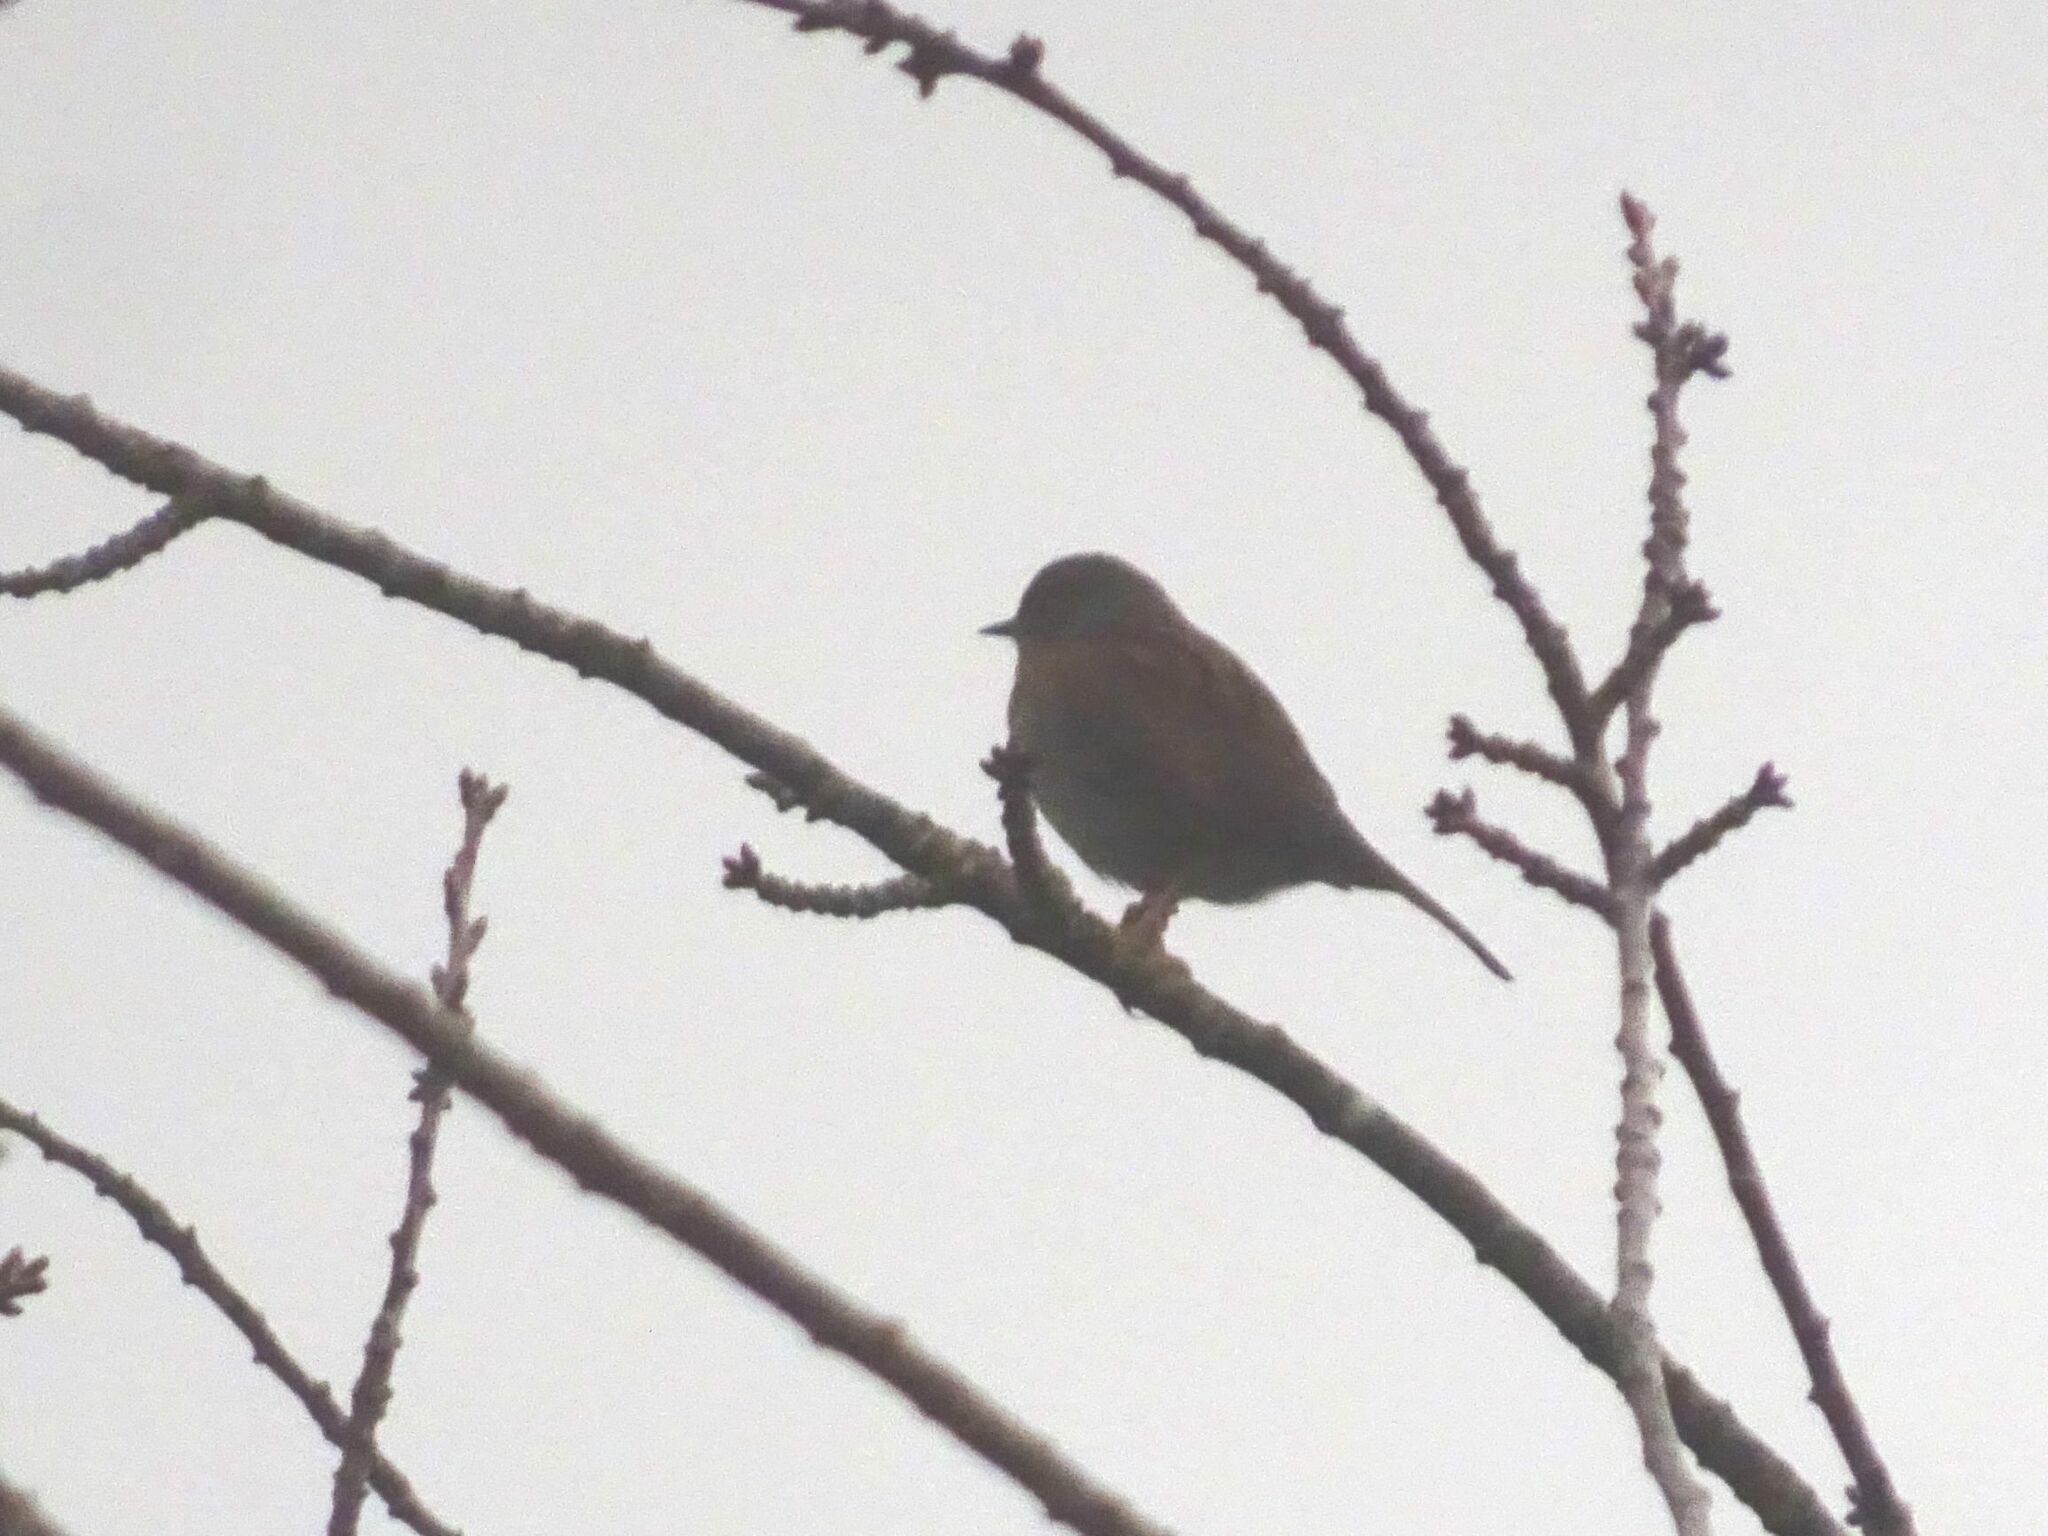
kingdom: Animalia
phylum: Chordata
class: Aves
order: Passeriformes
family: Prunellidae
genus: Prunella
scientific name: Prunella modularis
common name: Dunnock
